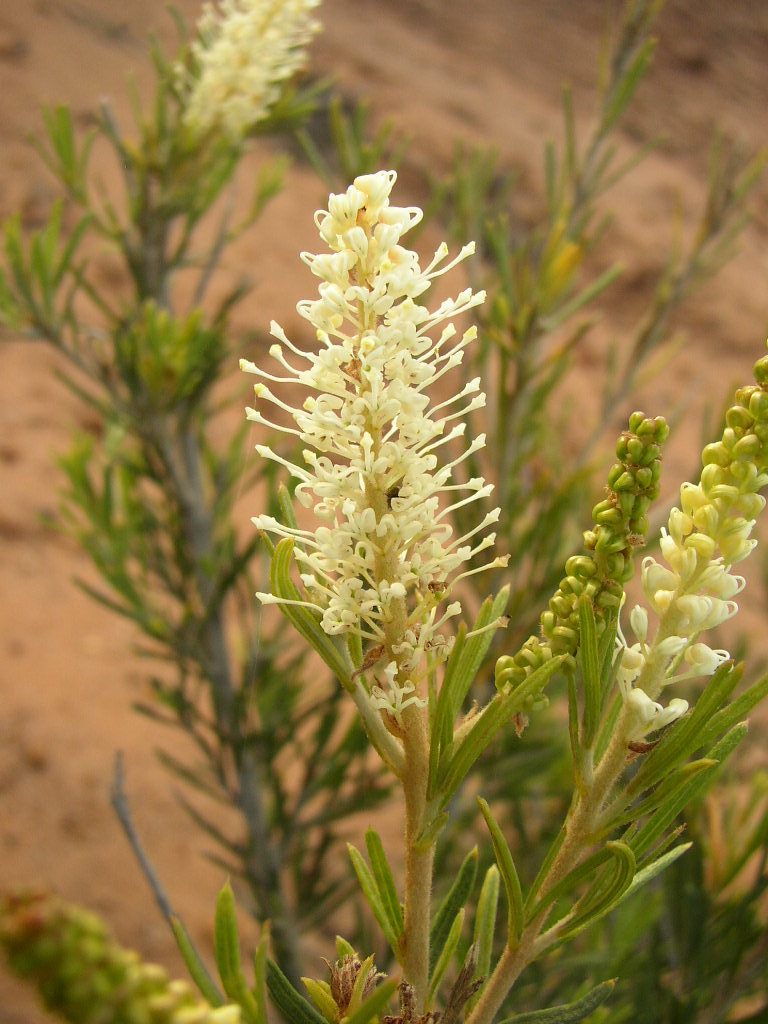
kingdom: Plantae
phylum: Tracheophyta
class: Magnoliopsida
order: Proteales
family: Proteaceae
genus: Grevillea
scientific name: Grevillea trachytheca
